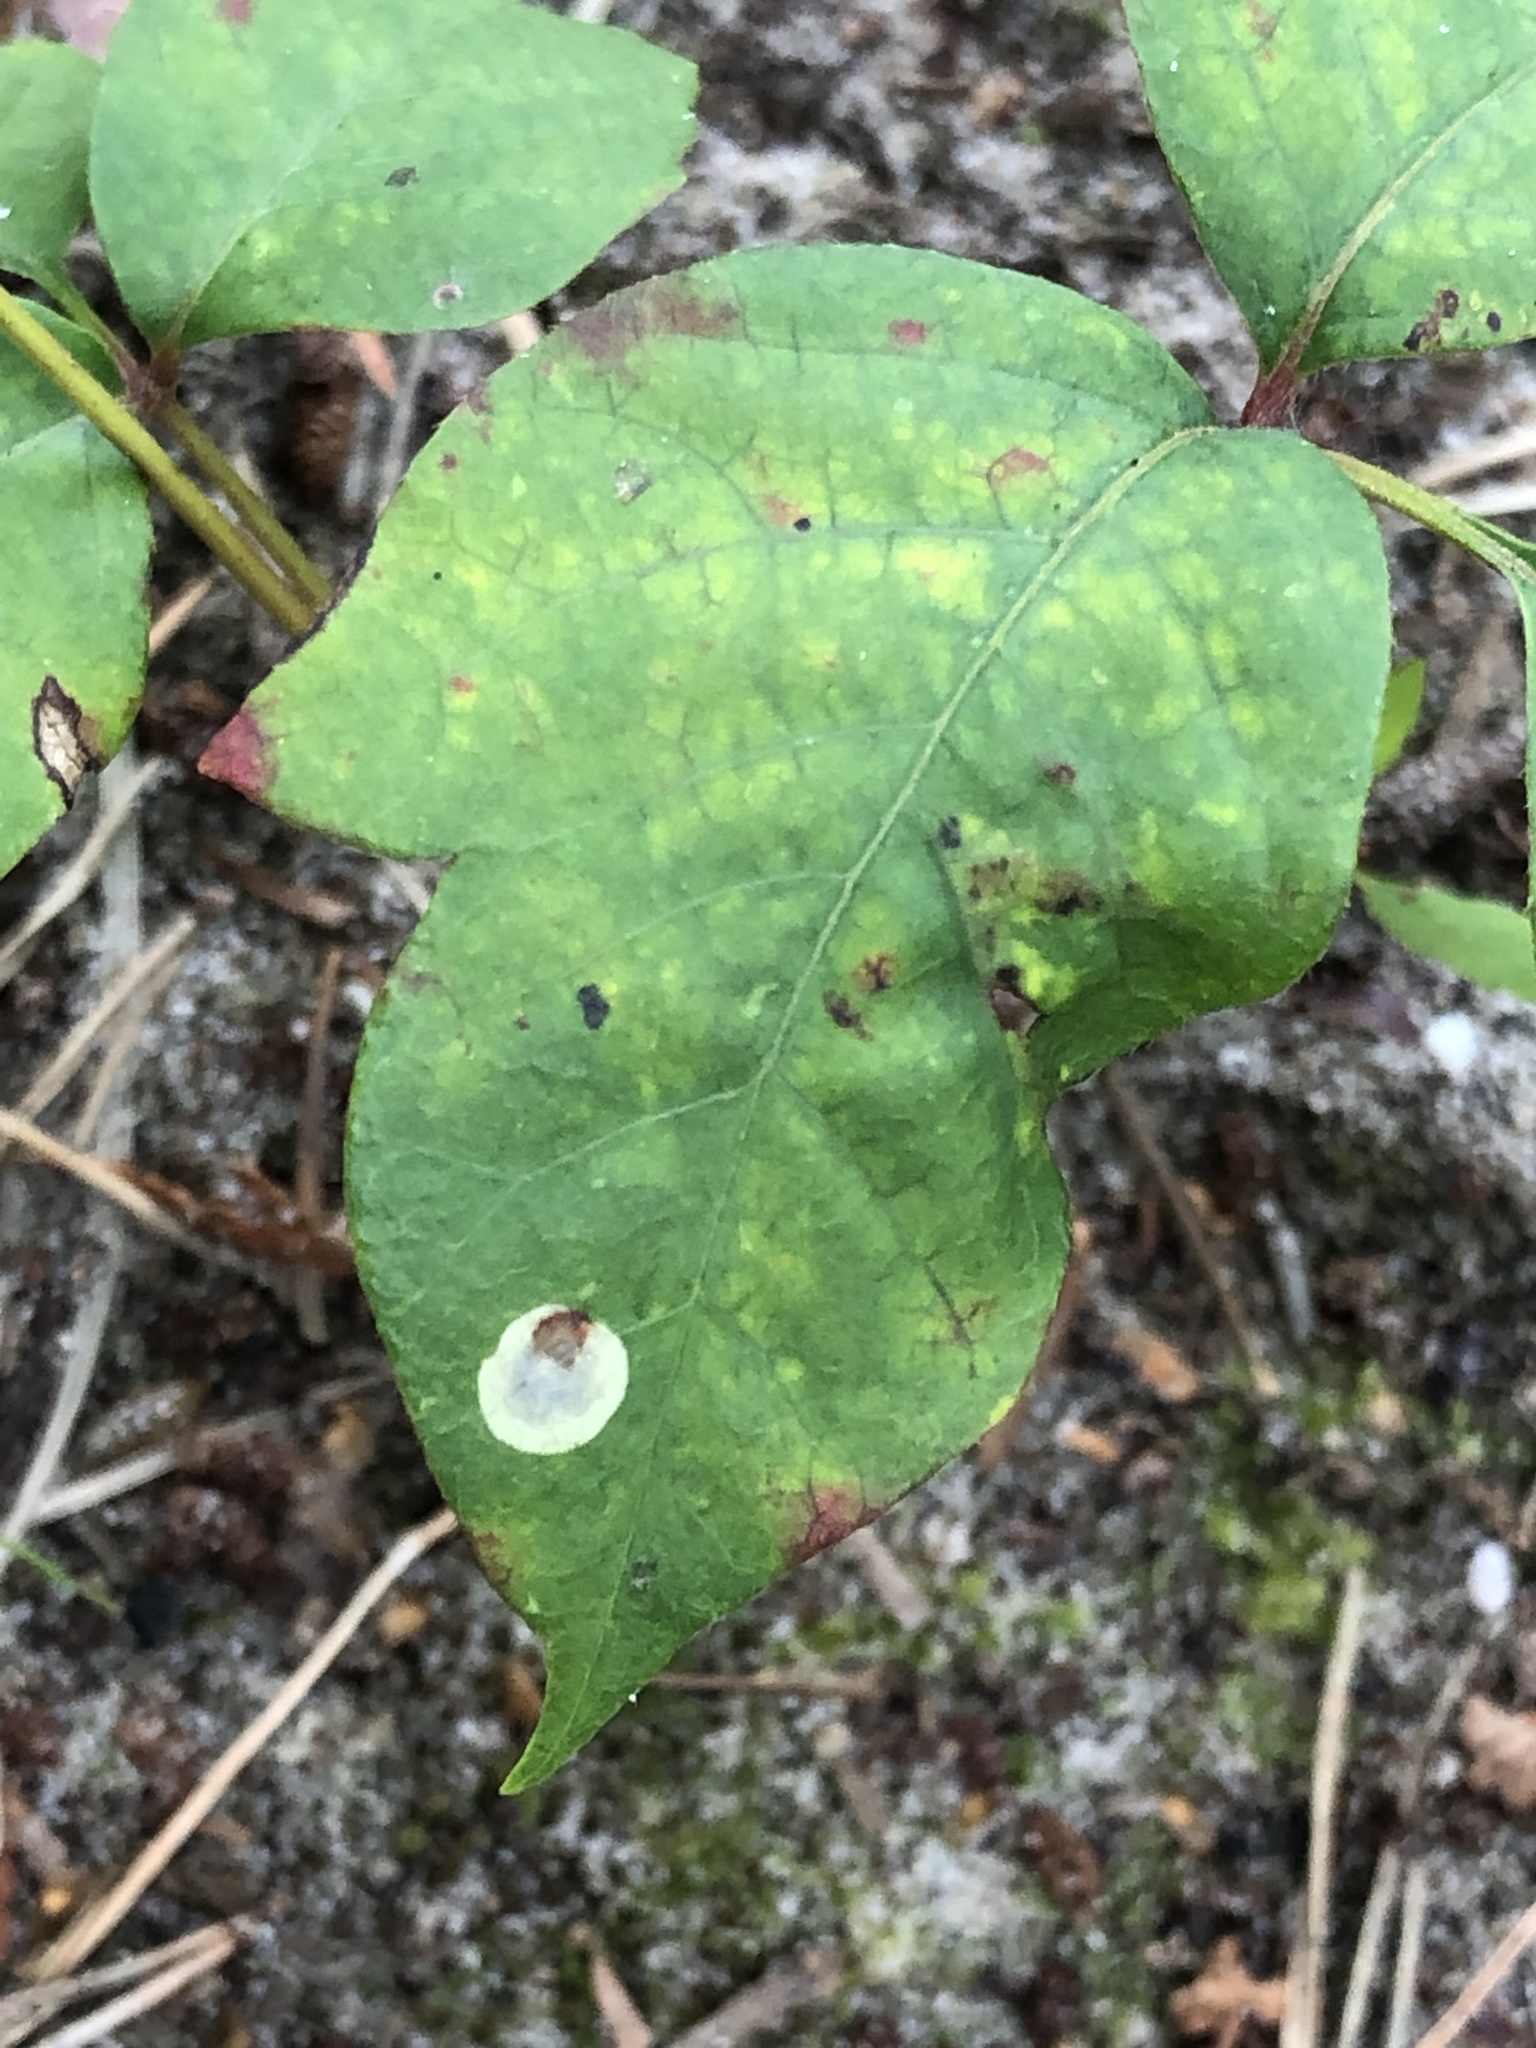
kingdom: Animalia
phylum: Arthropoda
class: Insecta
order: Lepidoptera
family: Gracillariidae
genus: Cameraria
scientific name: Cameraria guttifinitella
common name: Poison ivy leaf-miner moth
